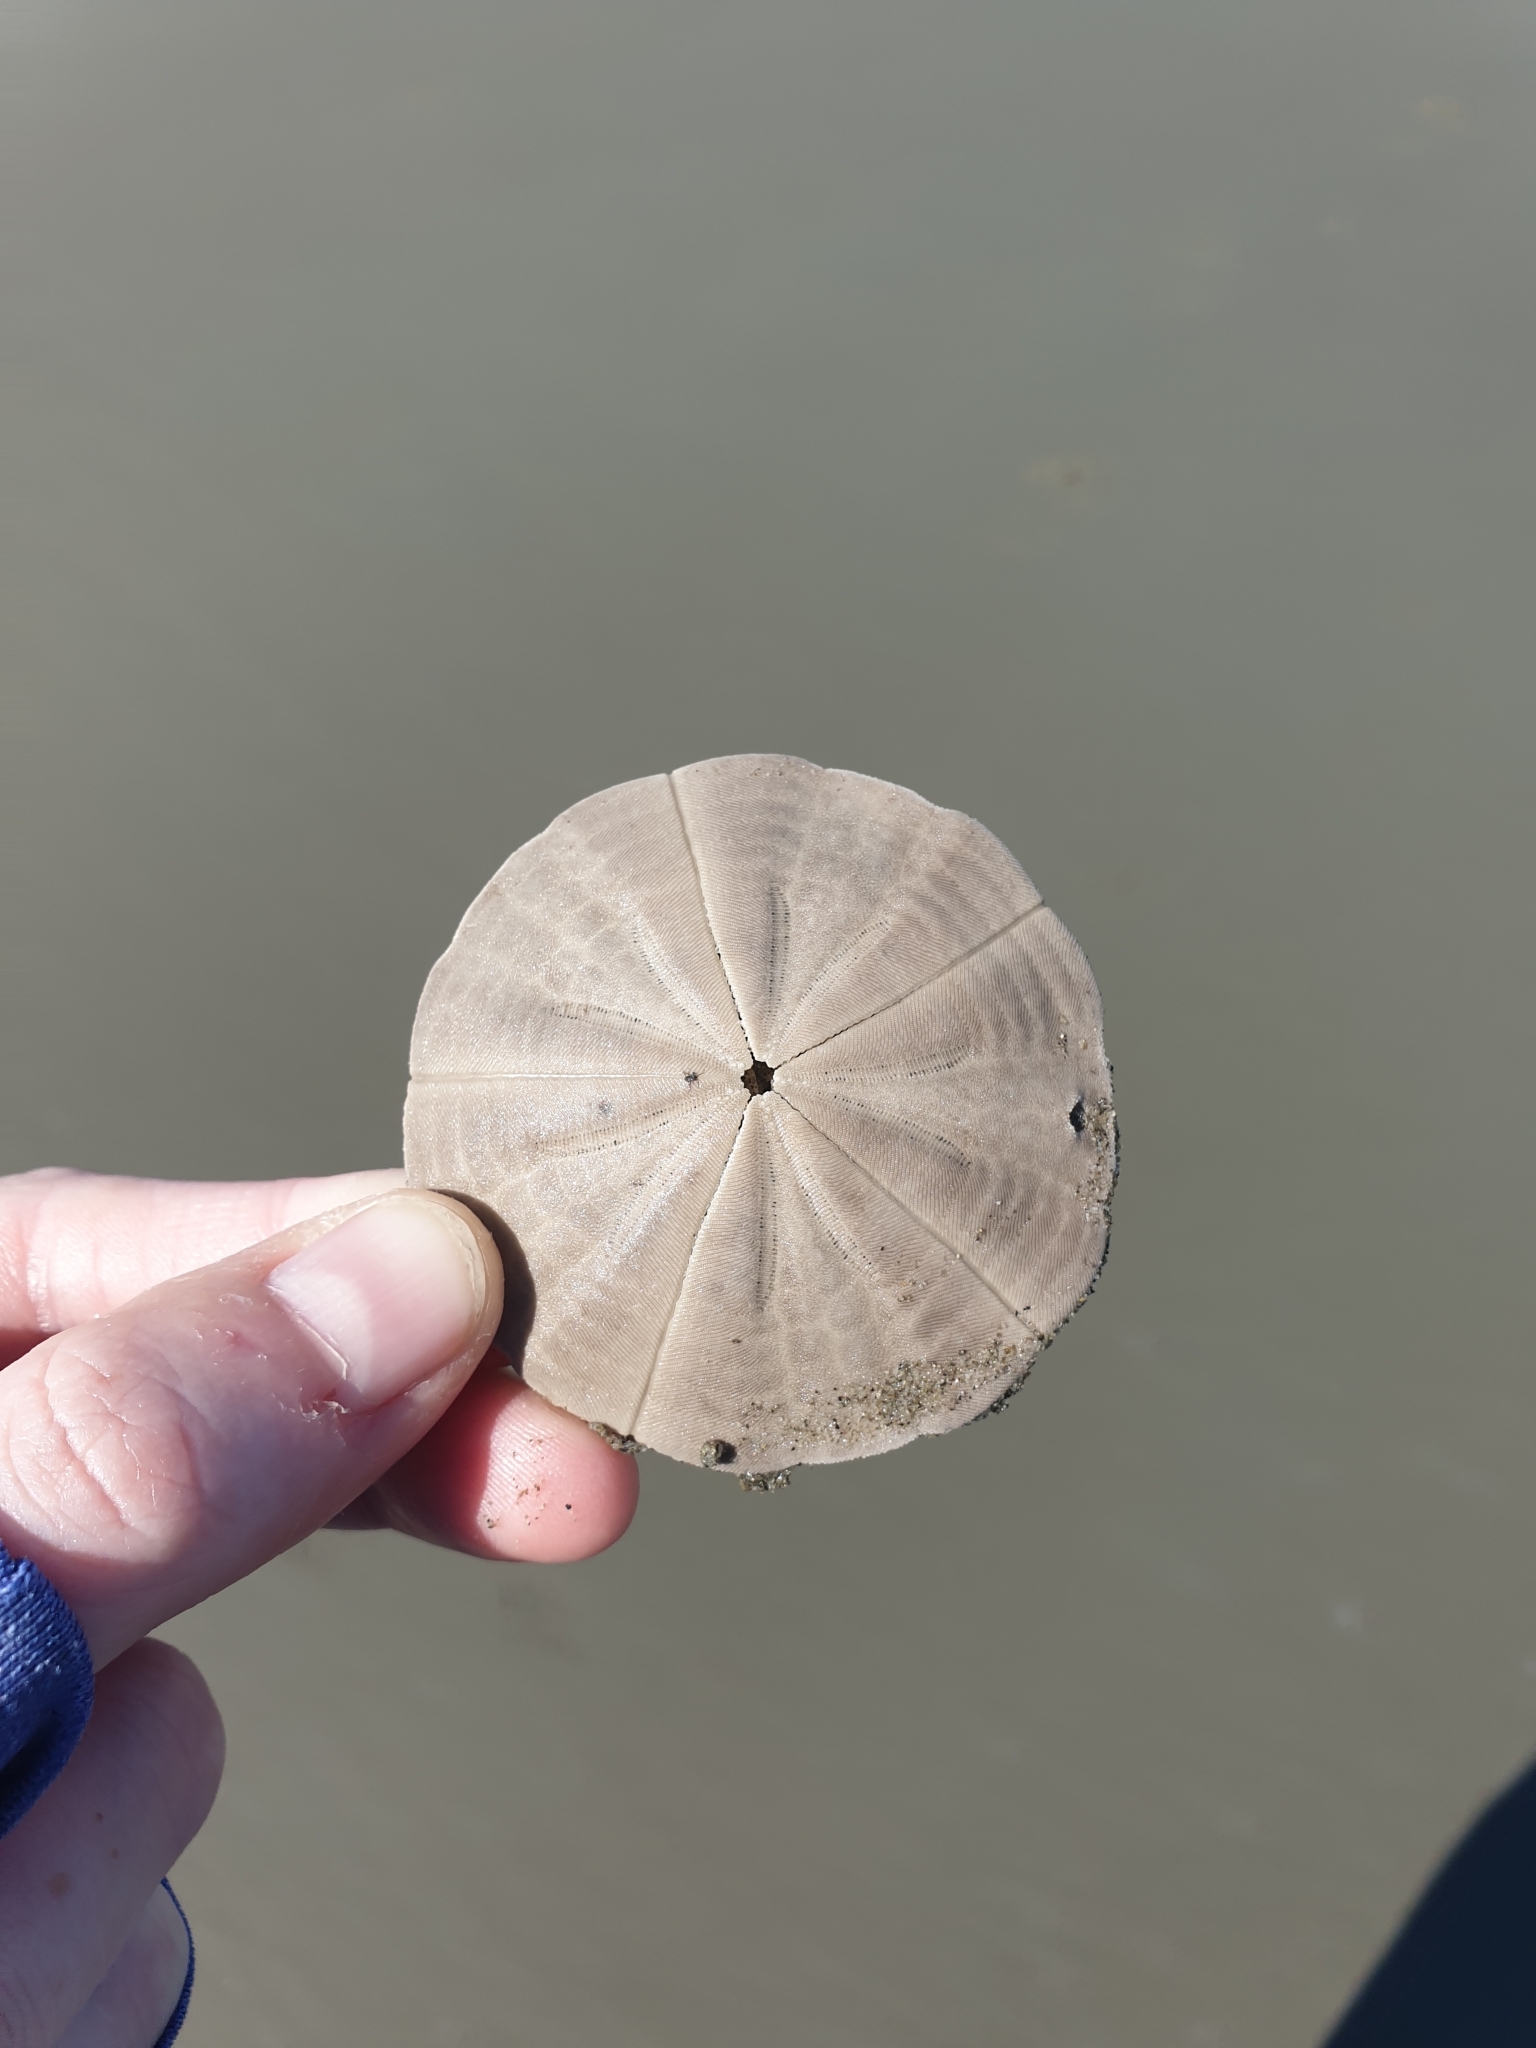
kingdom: Animalia
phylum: Echinodermata
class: Echinoidea
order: Clypeasteroida
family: Clypeasteridae
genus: Fellaster
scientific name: Fellaster zelandiae
